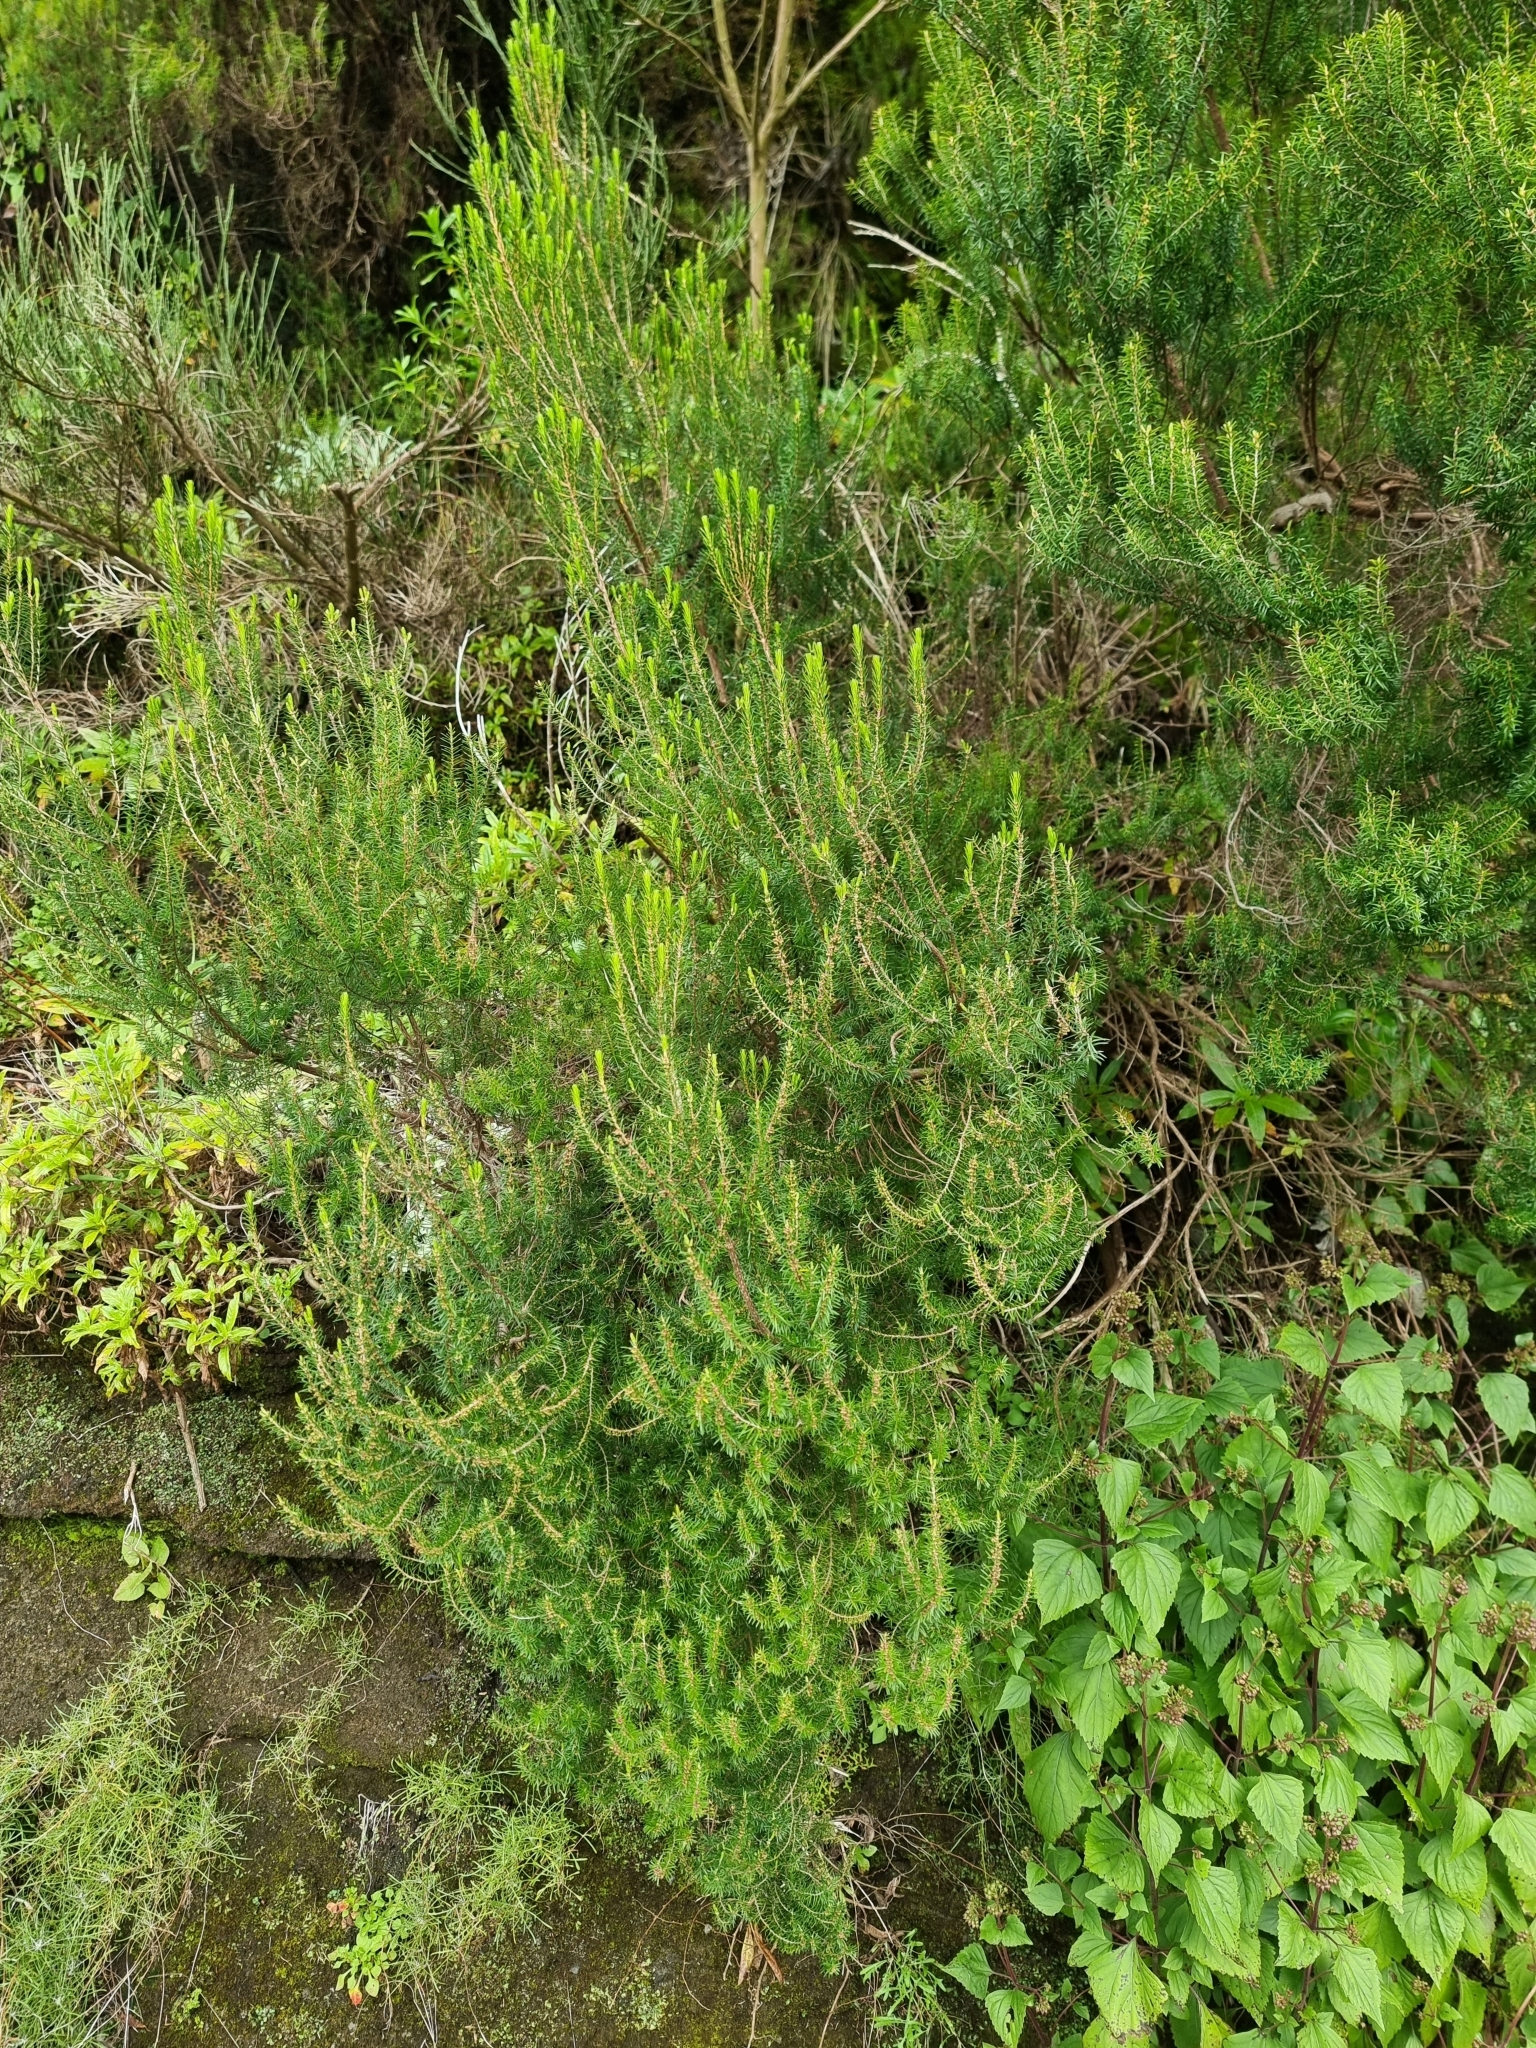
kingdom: Plantae
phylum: Tracheophyta
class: Magnoliopsida
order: Ericales
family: Ericaceae
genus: Erica
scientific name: Erica platycodon
